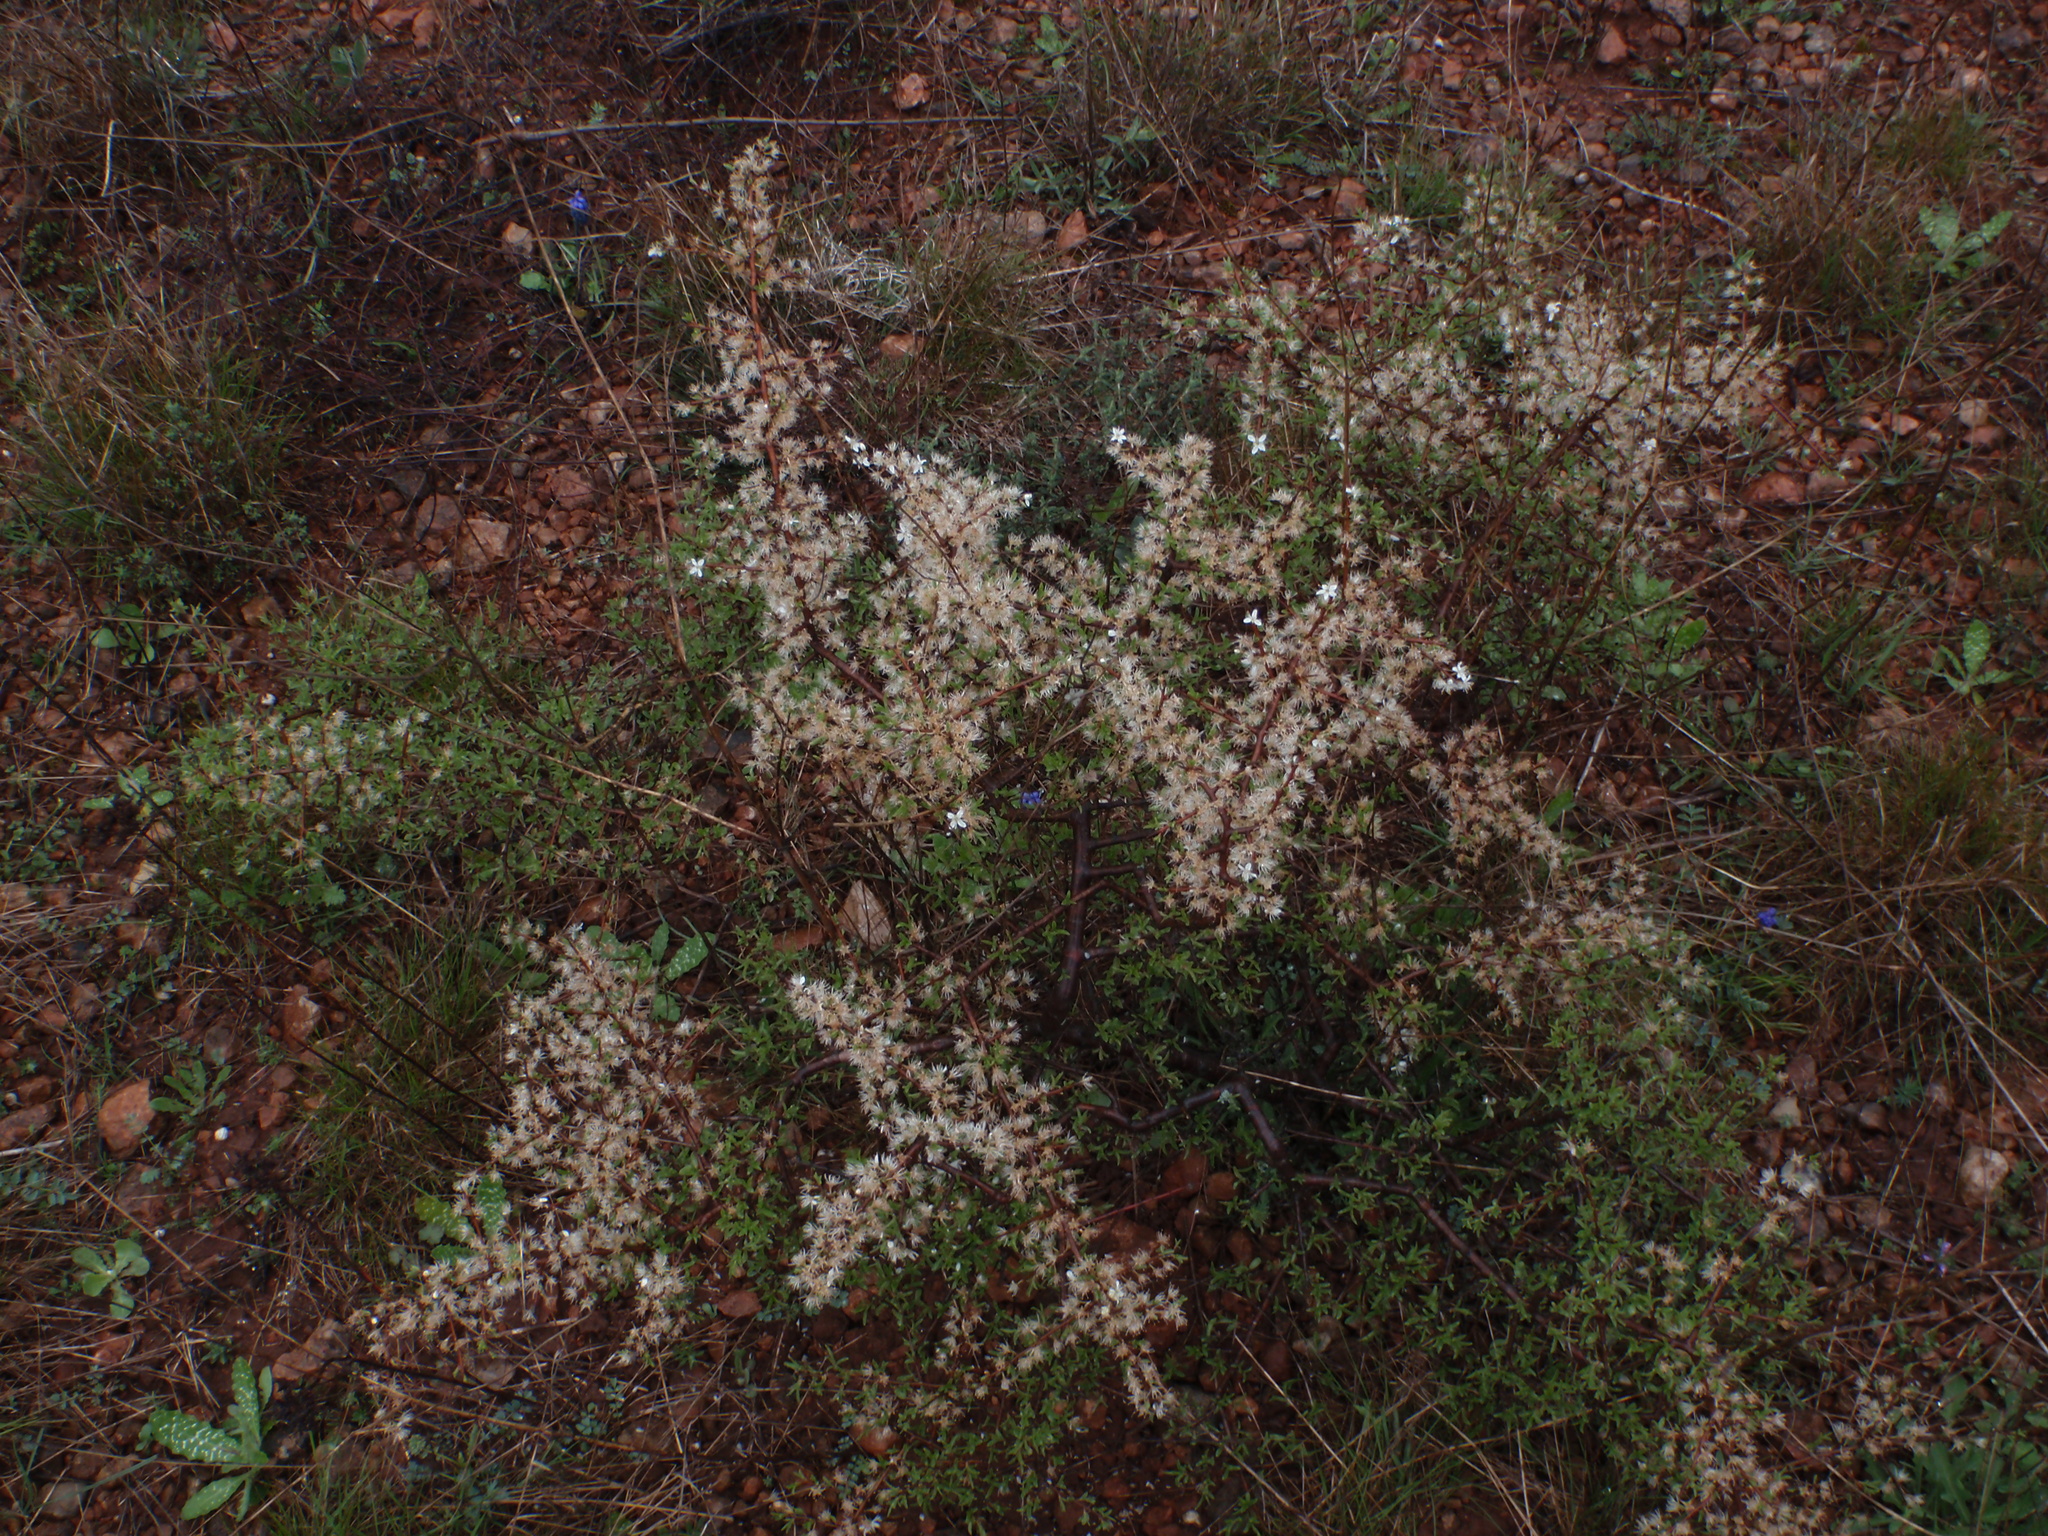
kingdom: Plantae
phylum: Tracheophyta
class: Magnoliopsida
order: Rosales
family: Rosaceae
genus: Prunus
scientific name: Prunus spinosa
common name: Blackthorn
